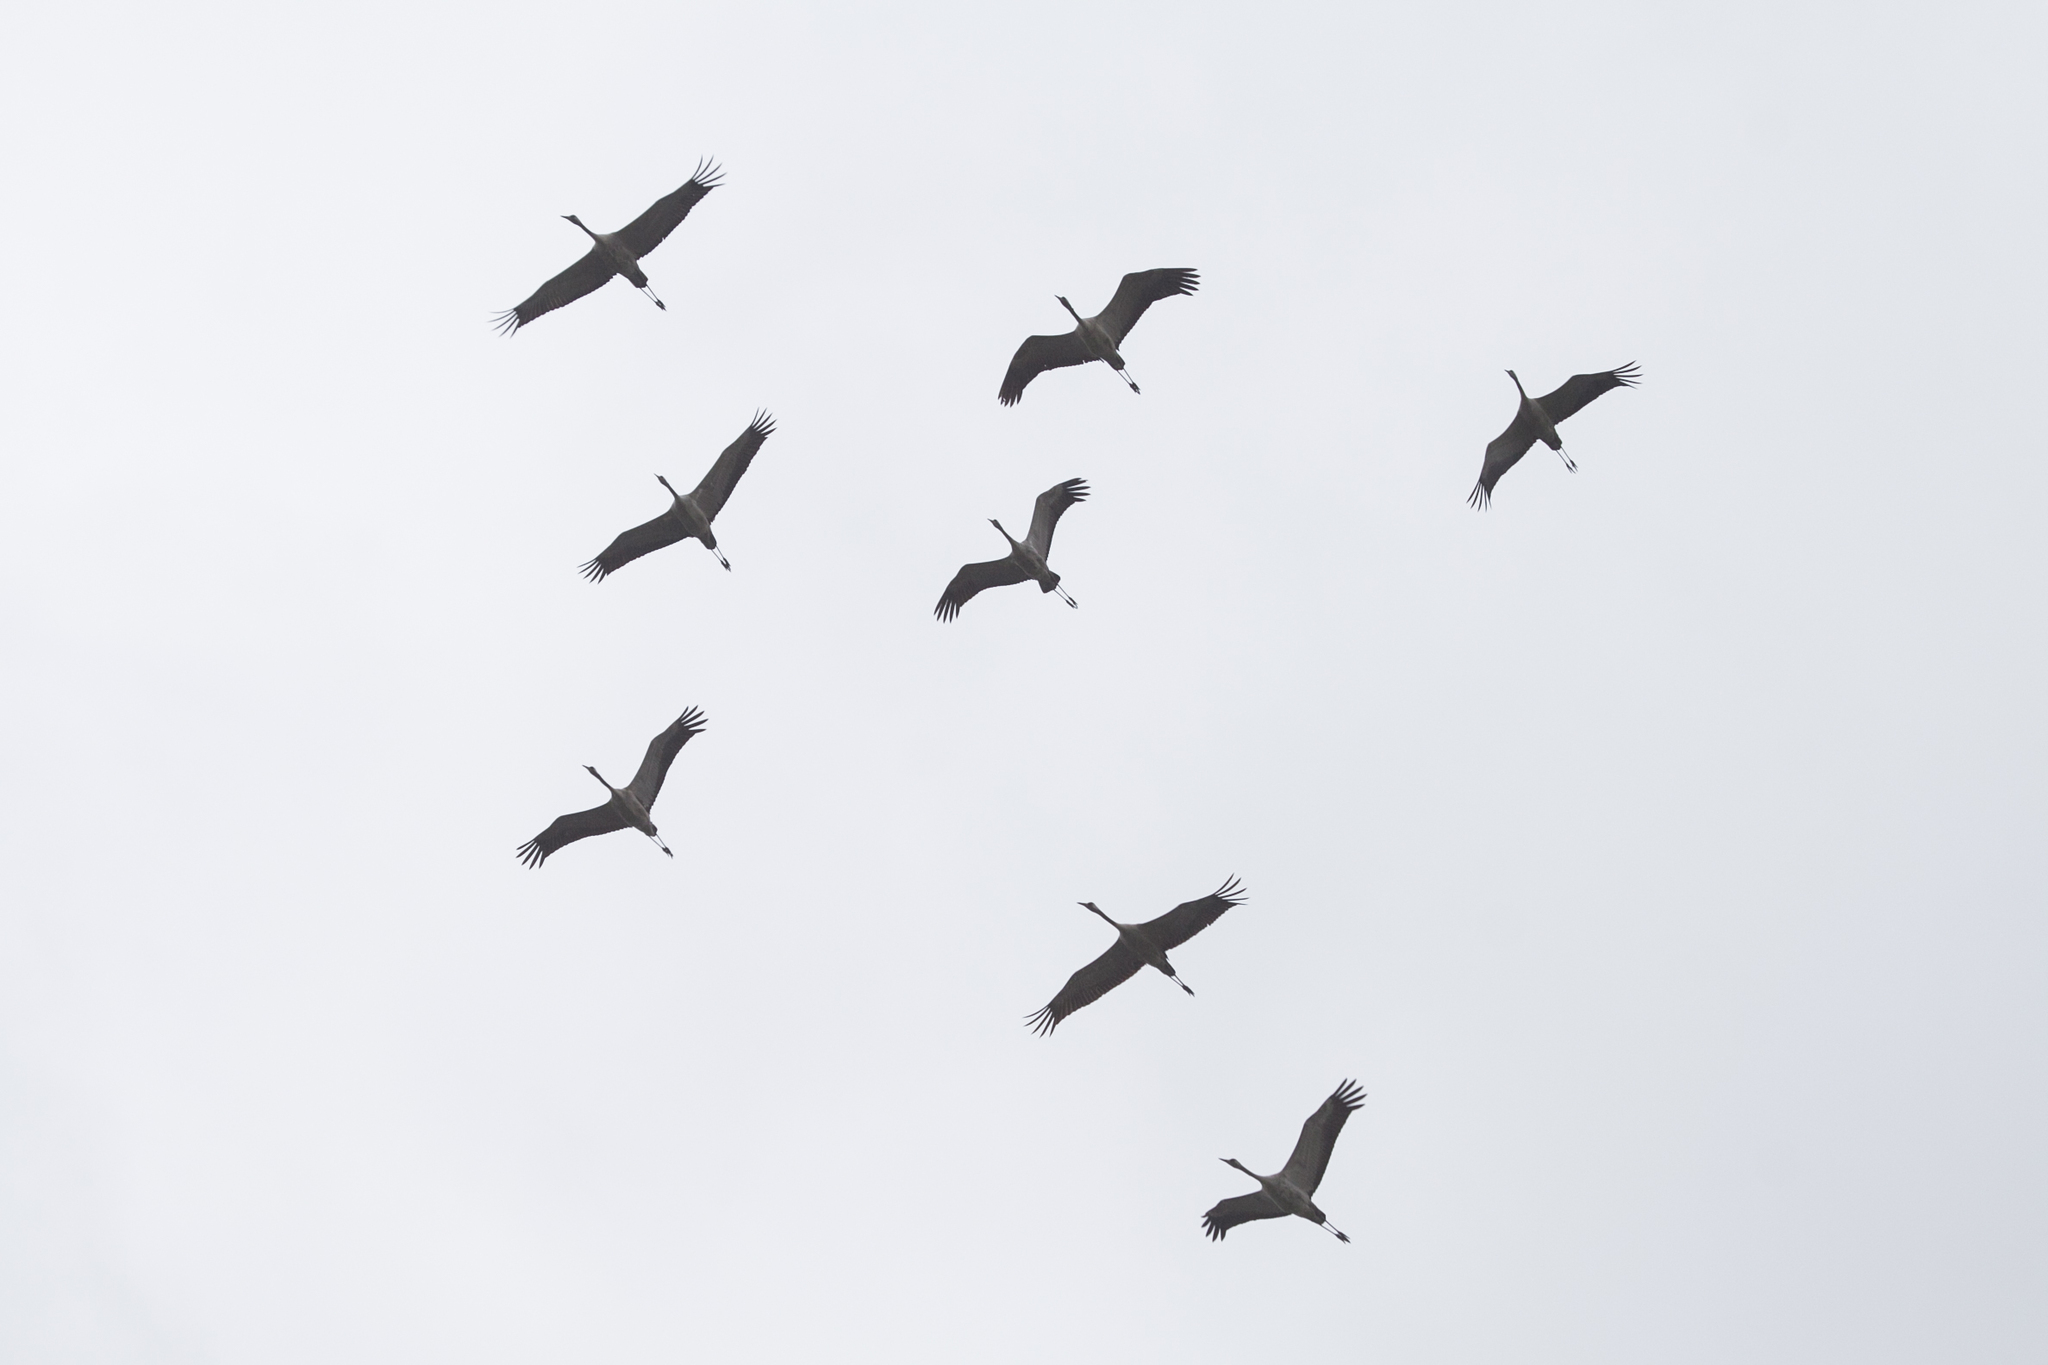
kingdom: Animalia
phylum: Chordata
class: Aves
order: Gruiformes
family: Gruidae
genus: Grus
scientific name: Grus grus
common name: Common crane
